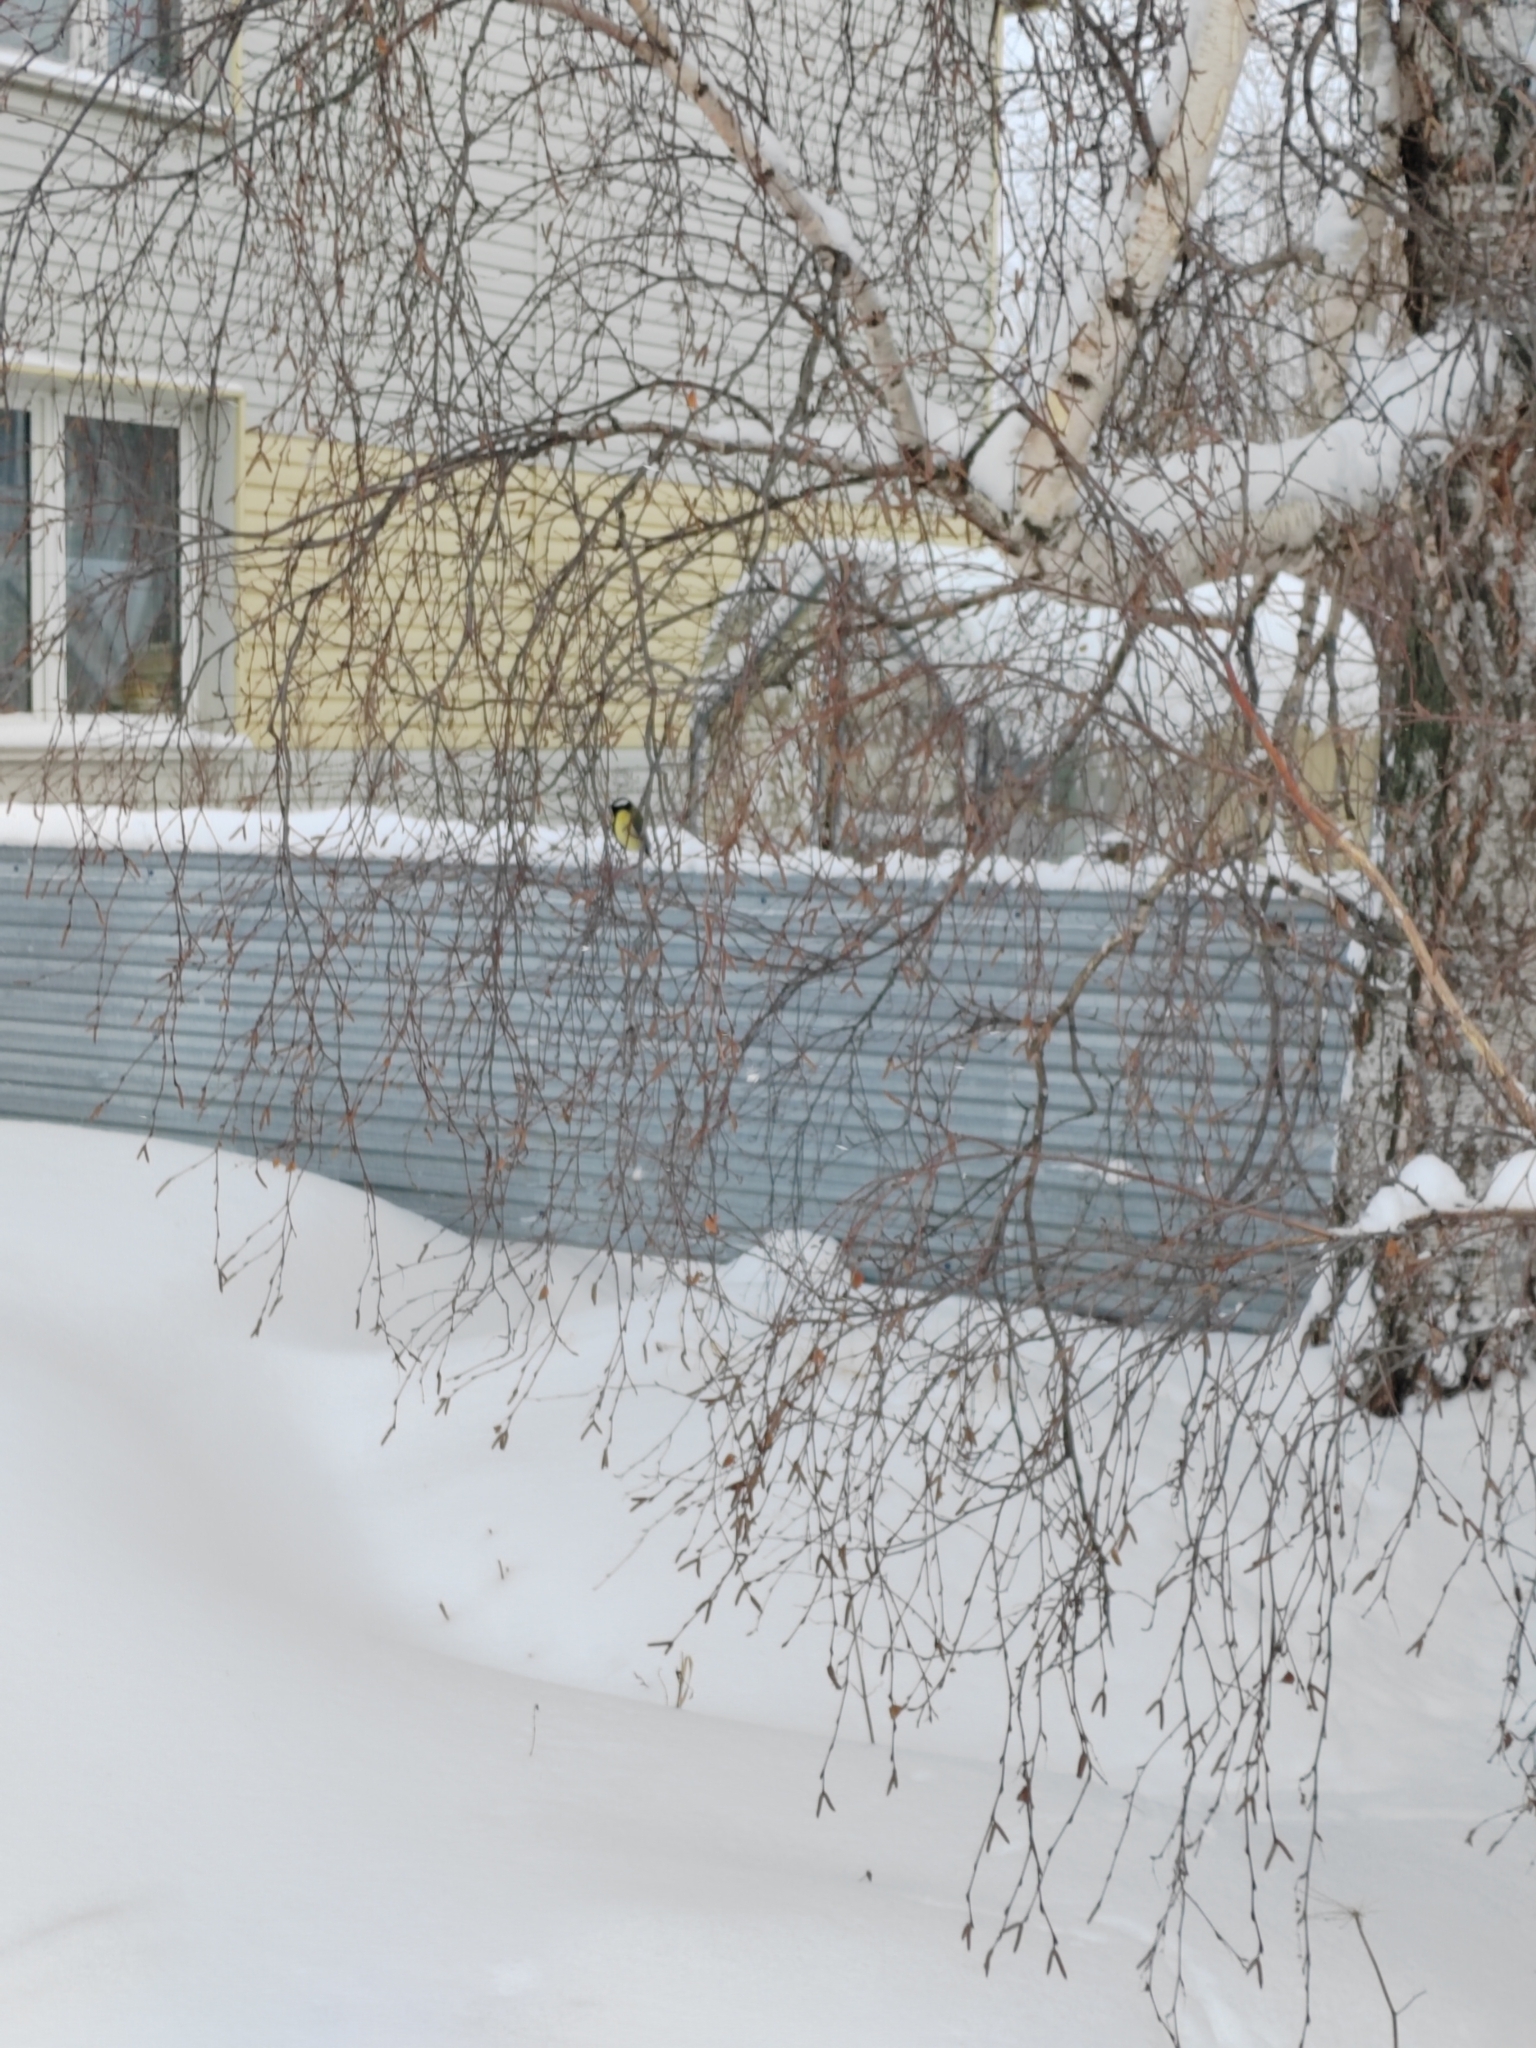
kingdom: Animalia
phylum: Chordata
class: Aves
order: Passeriformes
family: Paridae
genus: Parus
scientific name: Parus major
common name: Great tit
